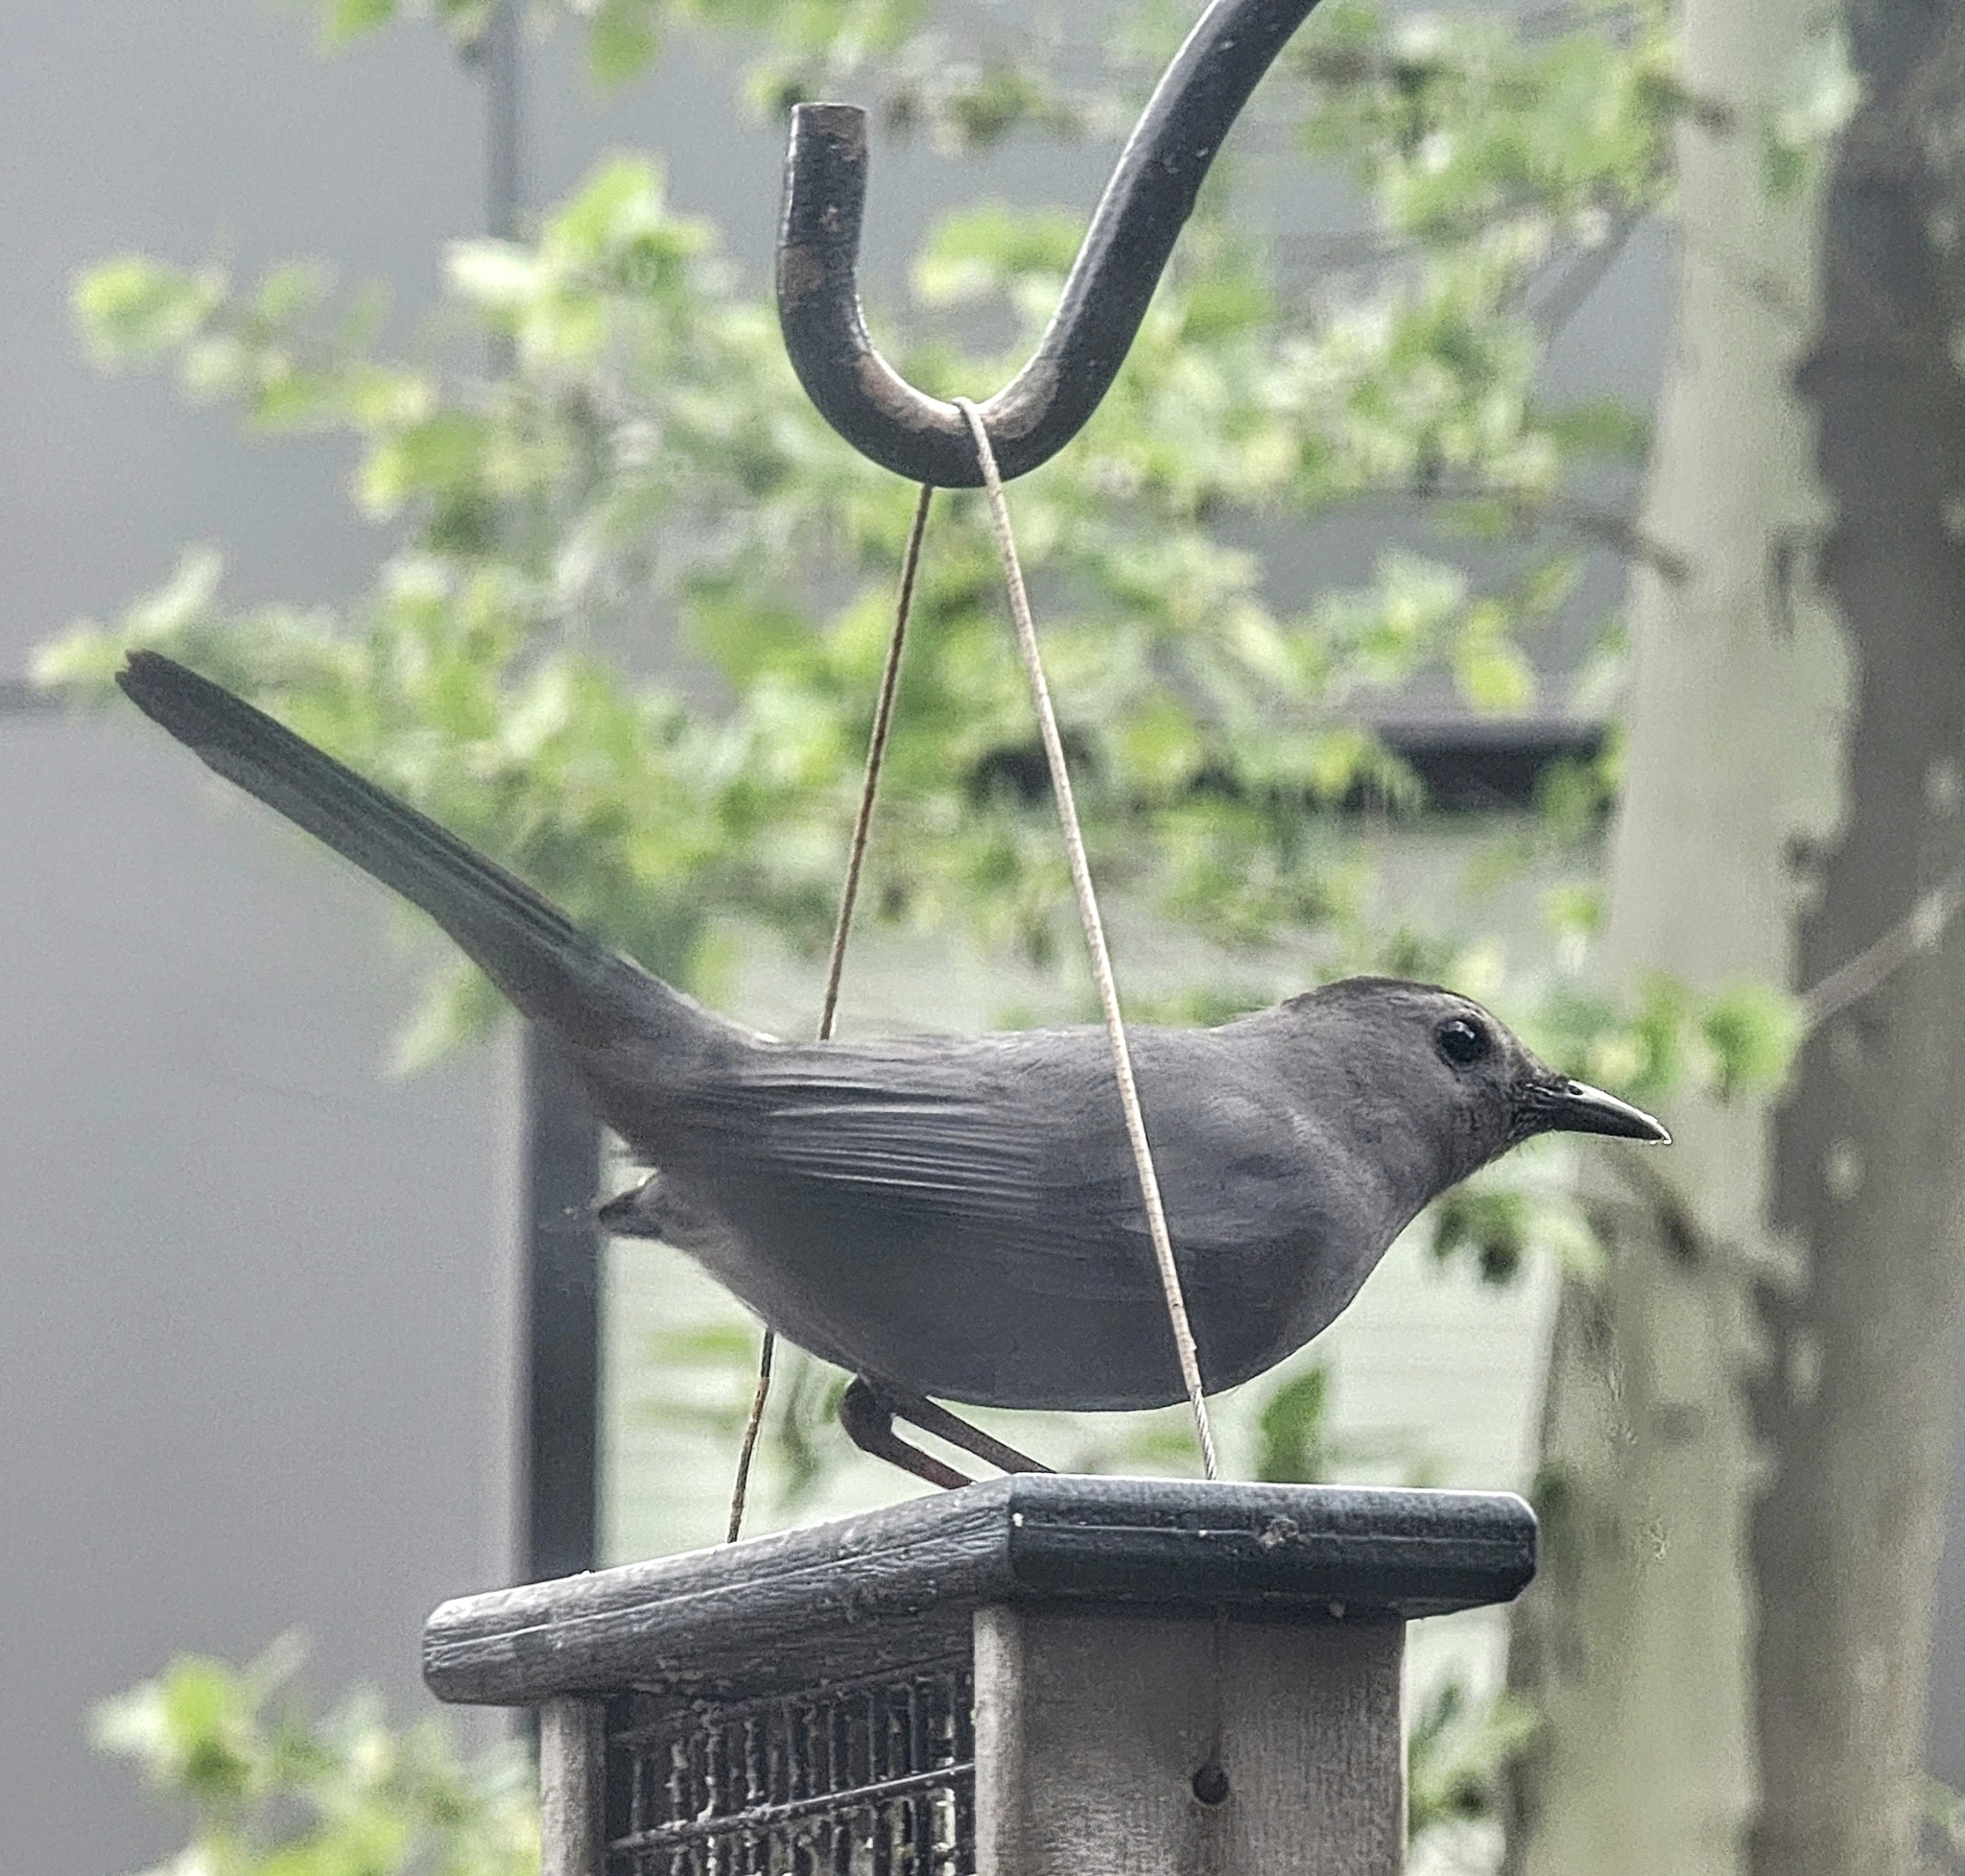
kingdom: Animalia
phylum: Chordata
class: Aves
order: Passeriformes
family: Mimidae
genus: Dumetella
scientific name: Dumetella carolinensis
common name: Gray catbird
